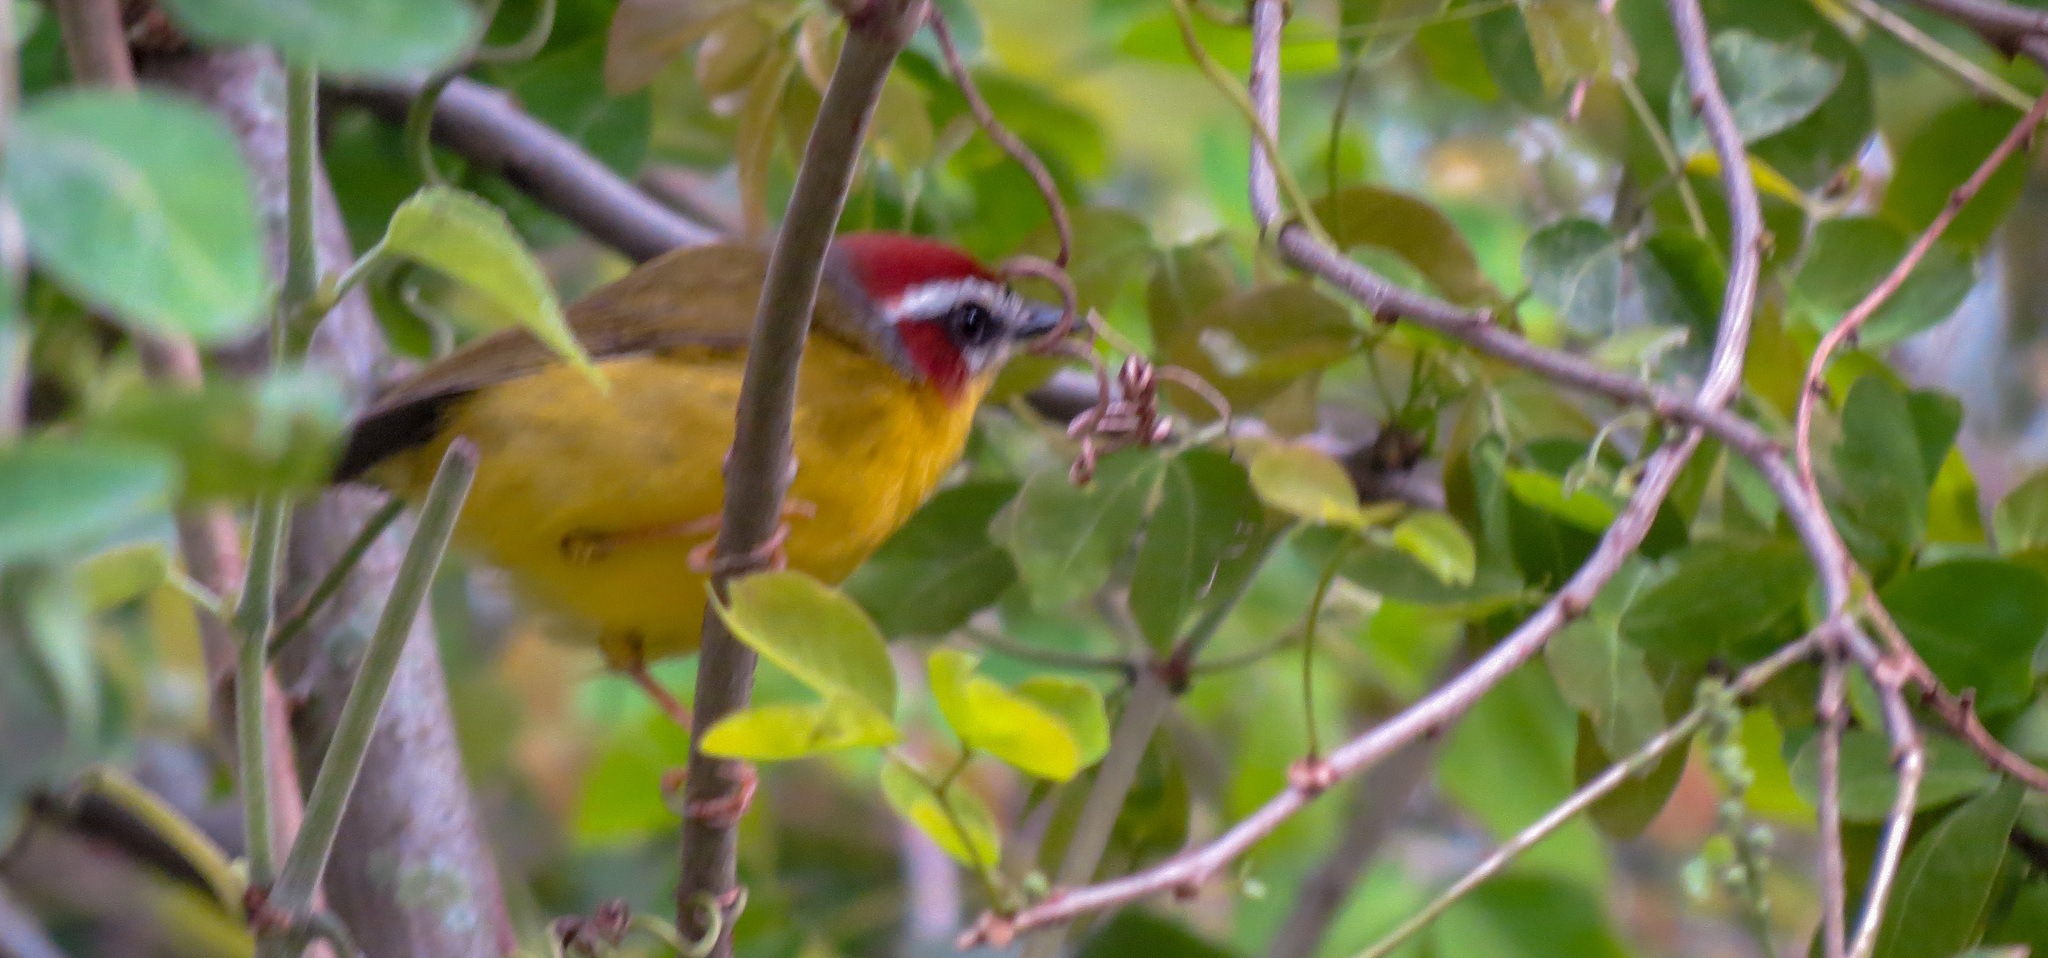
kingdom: Animalia
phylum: Chordata
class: Aves
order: Passeriformes
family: Parulidae
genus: Basileuterus
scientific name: Basileuterus rufifrons
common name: Rufous-capped warbler
